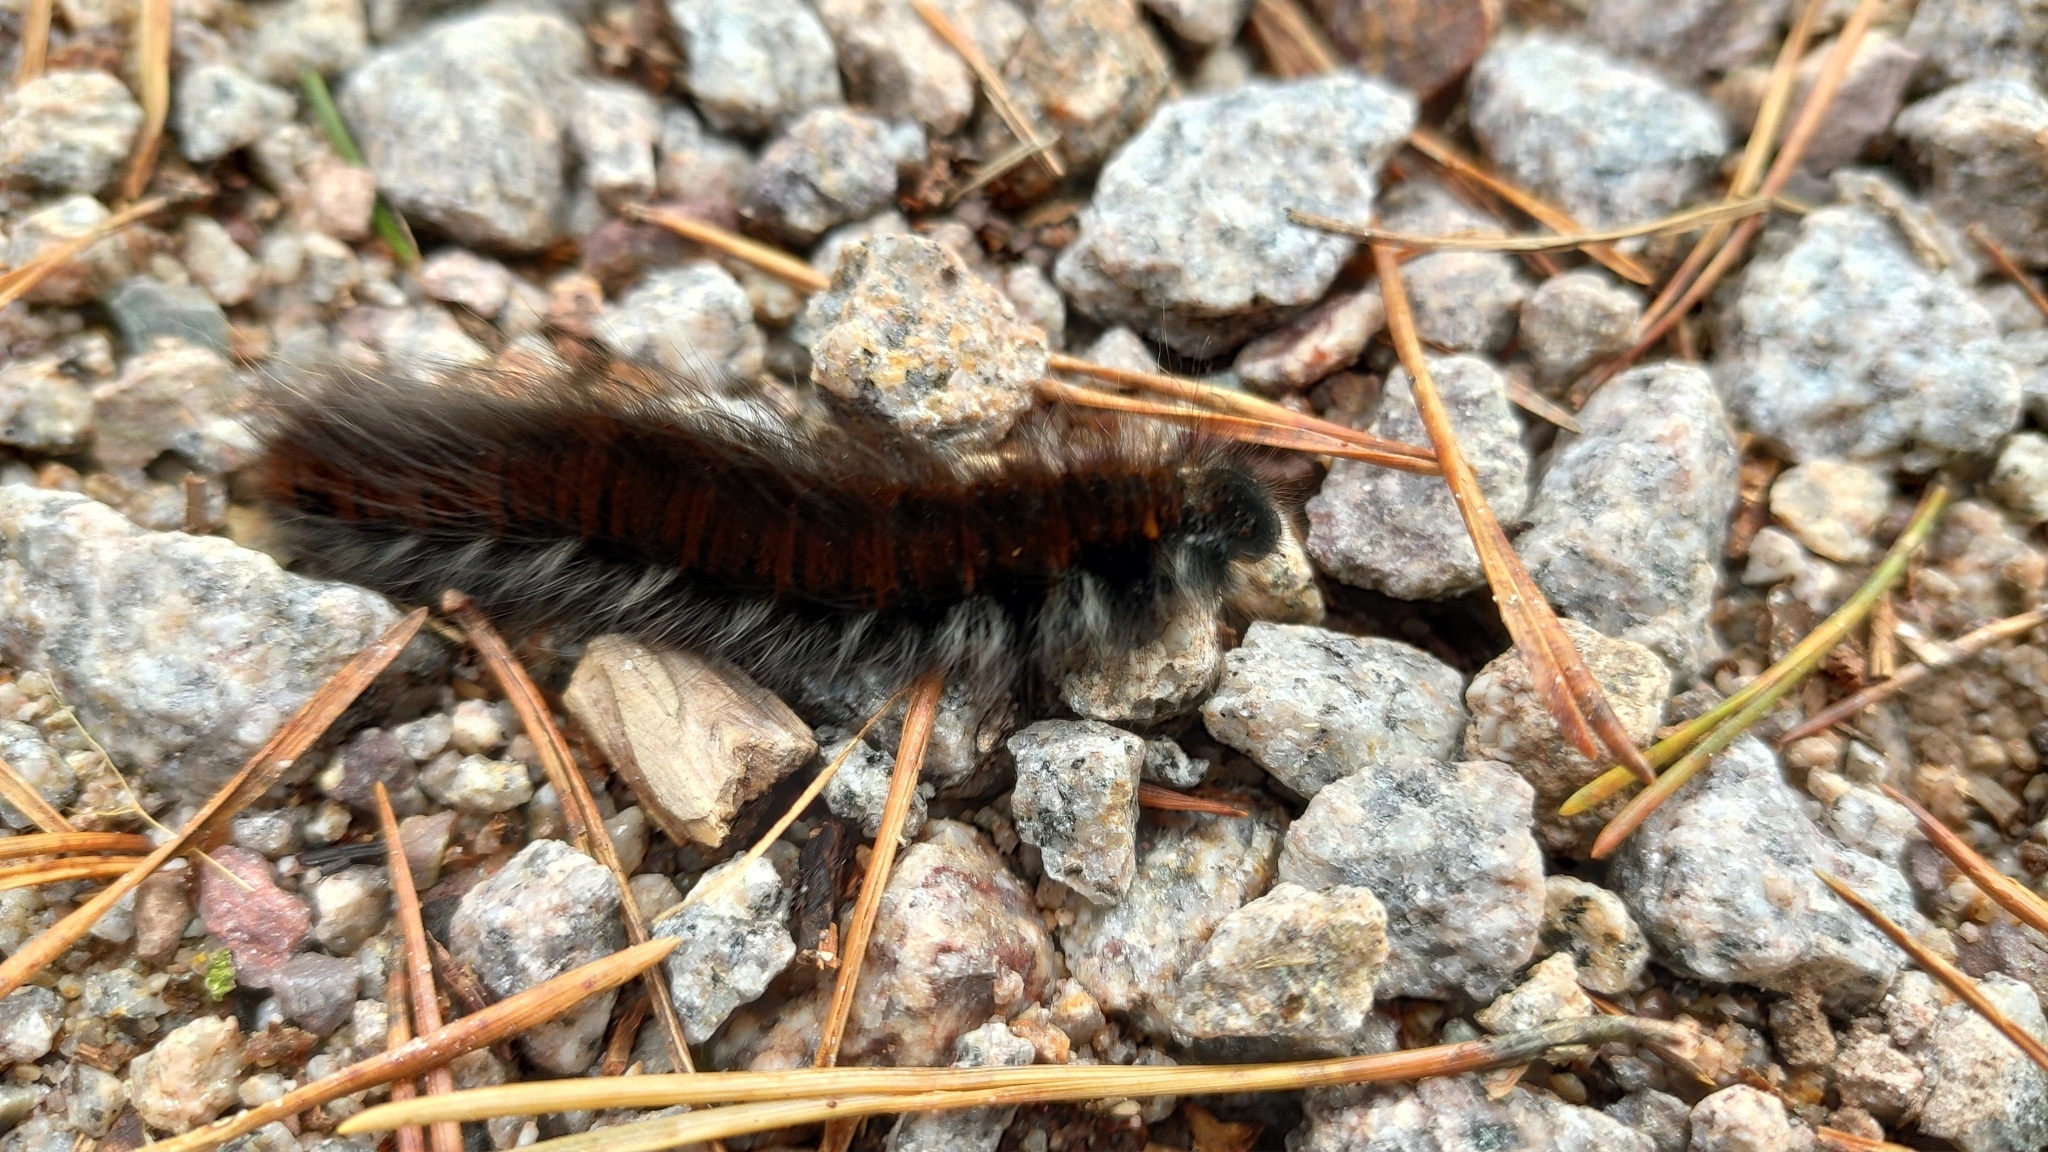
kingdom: Animalia
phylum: Arthropoda
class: Insecta
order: Lepidoptera
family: Lasiocampidae
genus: Macrothylacia
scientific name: Macrothylacia rubi
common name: Fox moth
